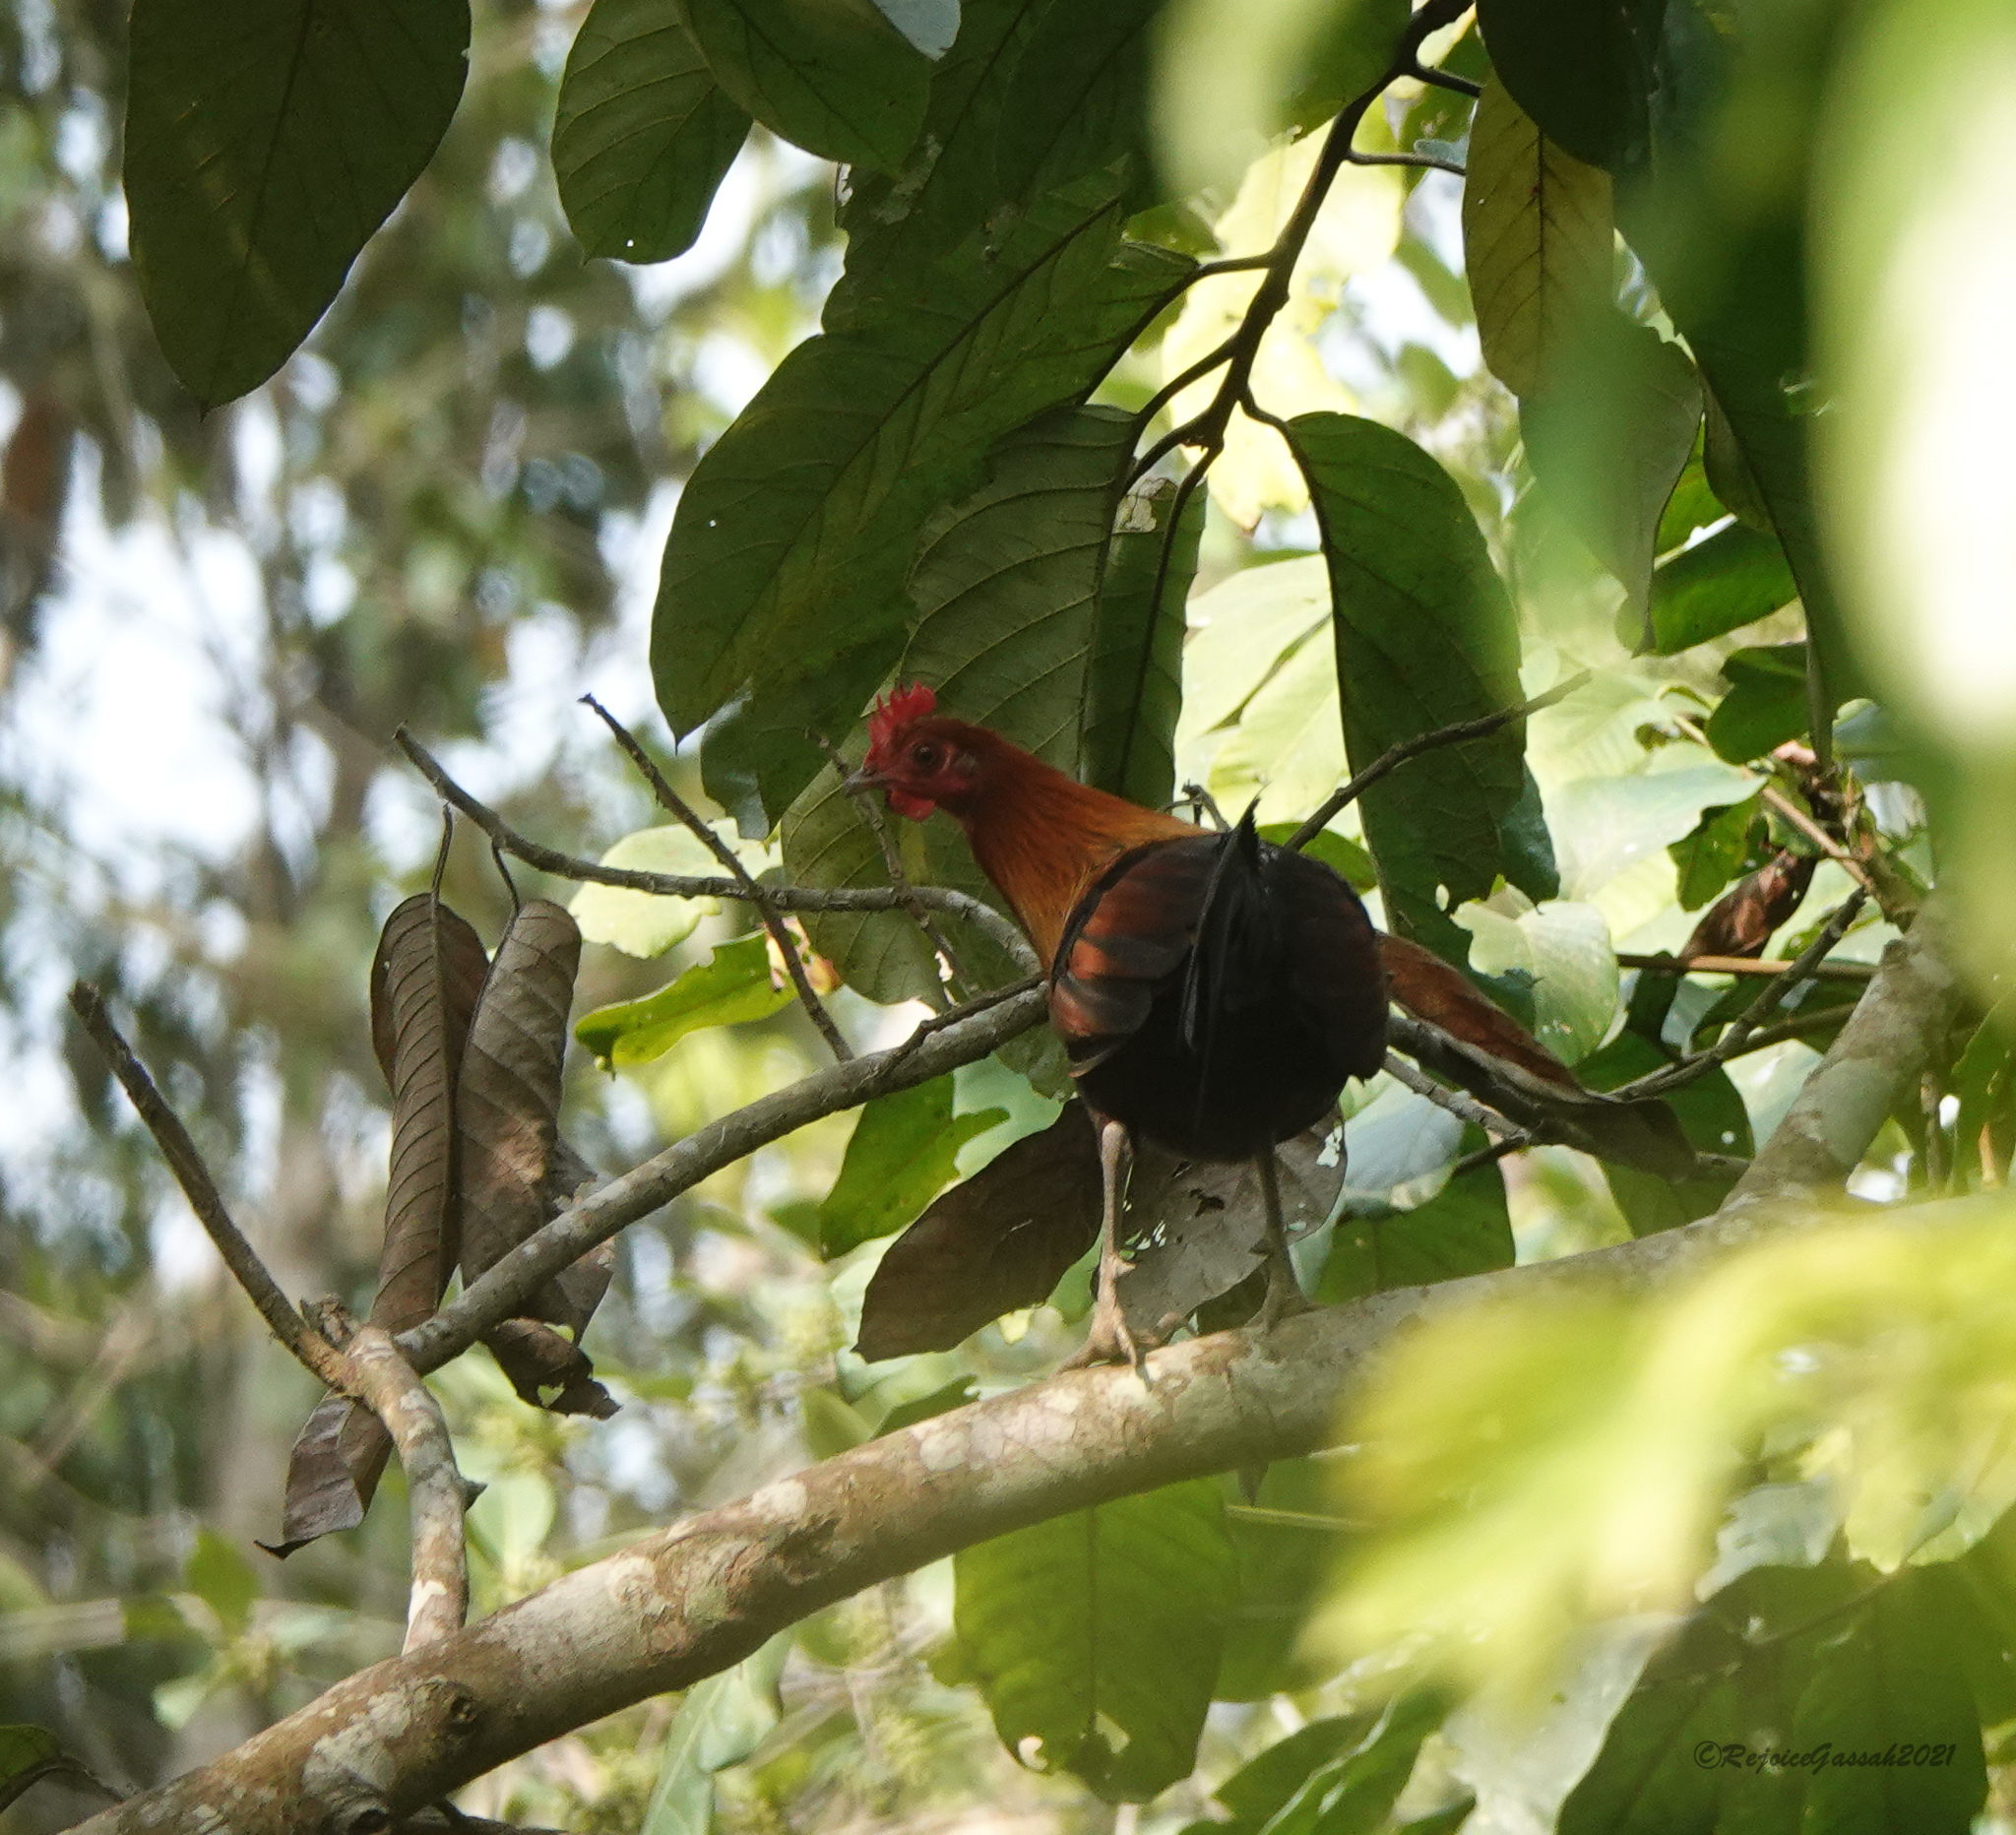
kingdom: Animalia
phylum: Chordata
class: Aves
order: Galliformes
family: Phasianidae
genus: Gallus
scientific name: Gallus gallus
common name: Red junglefowl
